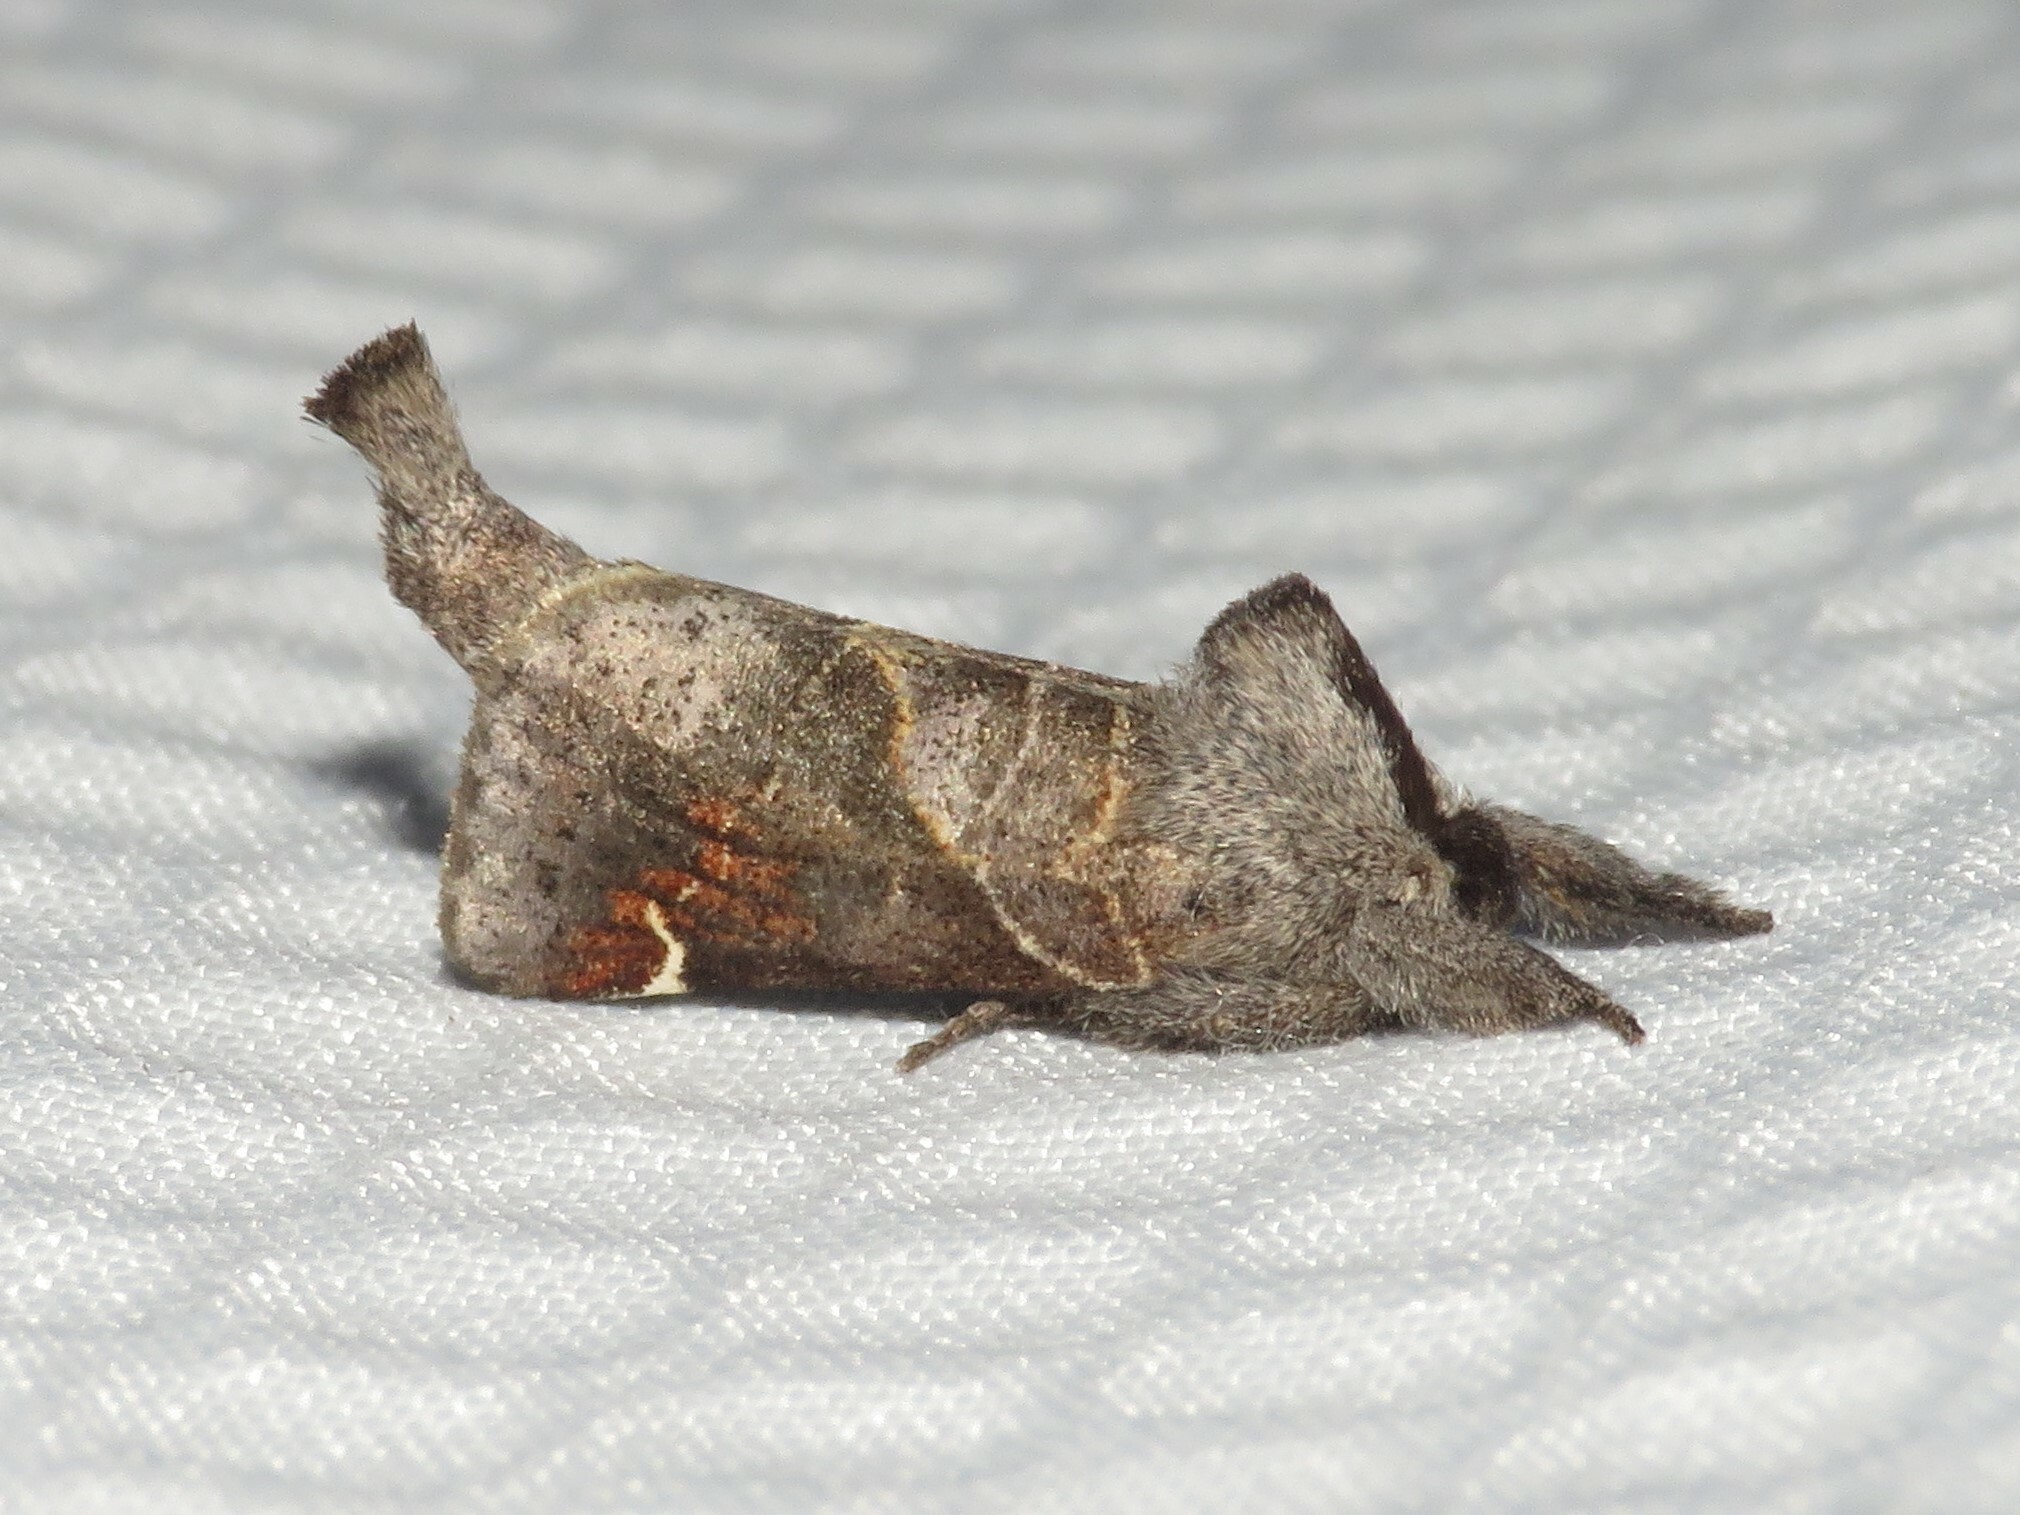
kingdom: Animalia
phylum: Arthropoda
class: Insecta
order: Lepidoptera
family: Notodontidae
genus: Clostera
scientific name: Clostera apicalis
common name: Apical prominent
